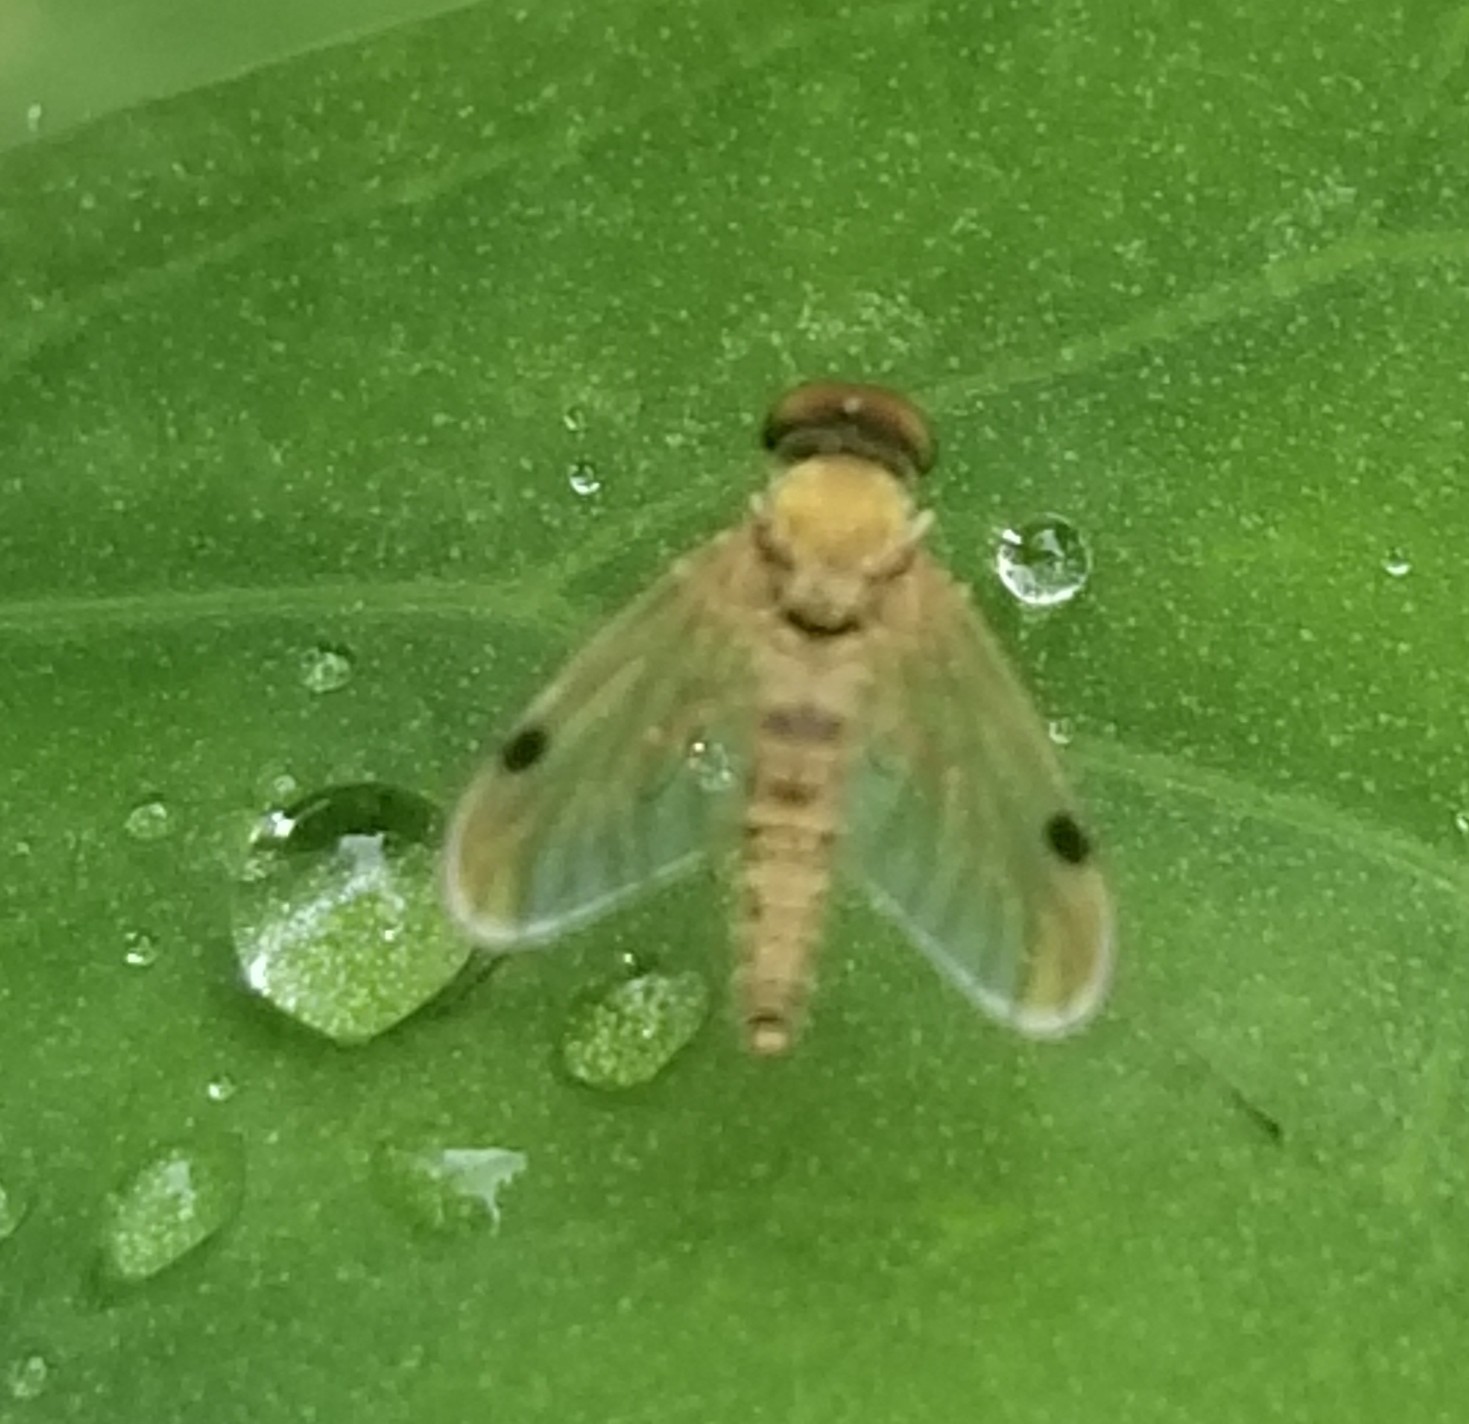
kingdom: Animalia
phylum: Arthropoda
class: Insecta
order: Diptera
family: Rhagionidae
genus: Chrysopilus
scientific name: Chrysopilus modestus
